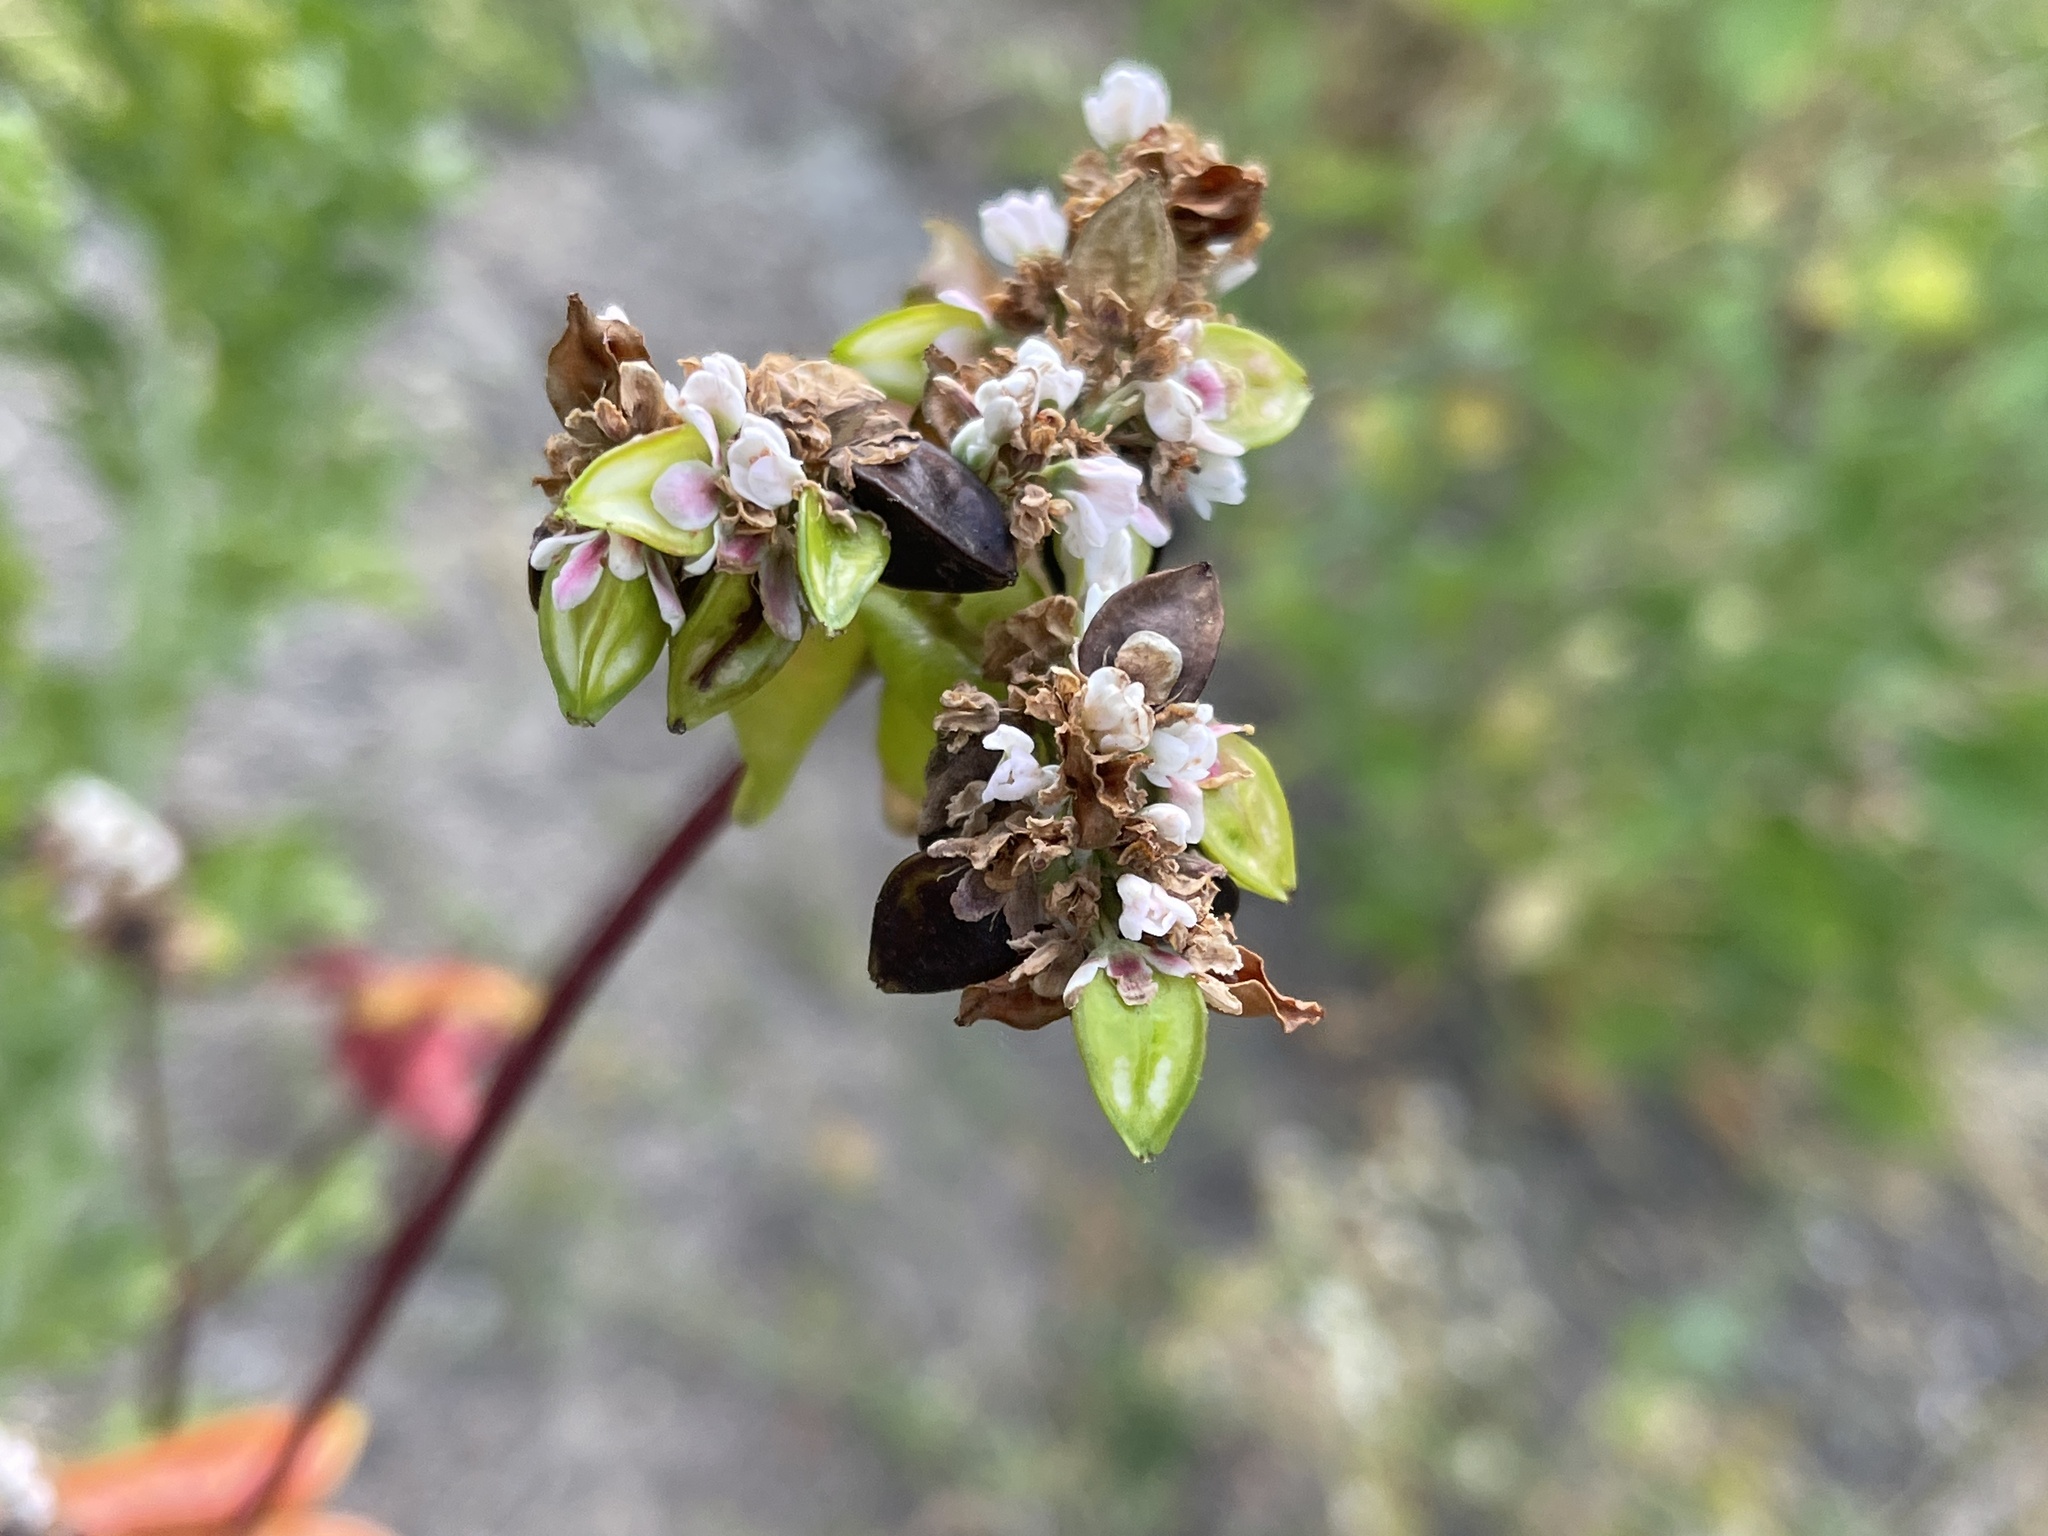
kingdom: Plantae
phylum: Tracheophyta
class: Magnoliopsida
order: Caryophyllales
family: Polygonaceae
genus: Fagopyrum
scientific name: Fagopyrum esculentum
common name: Buckwheat
